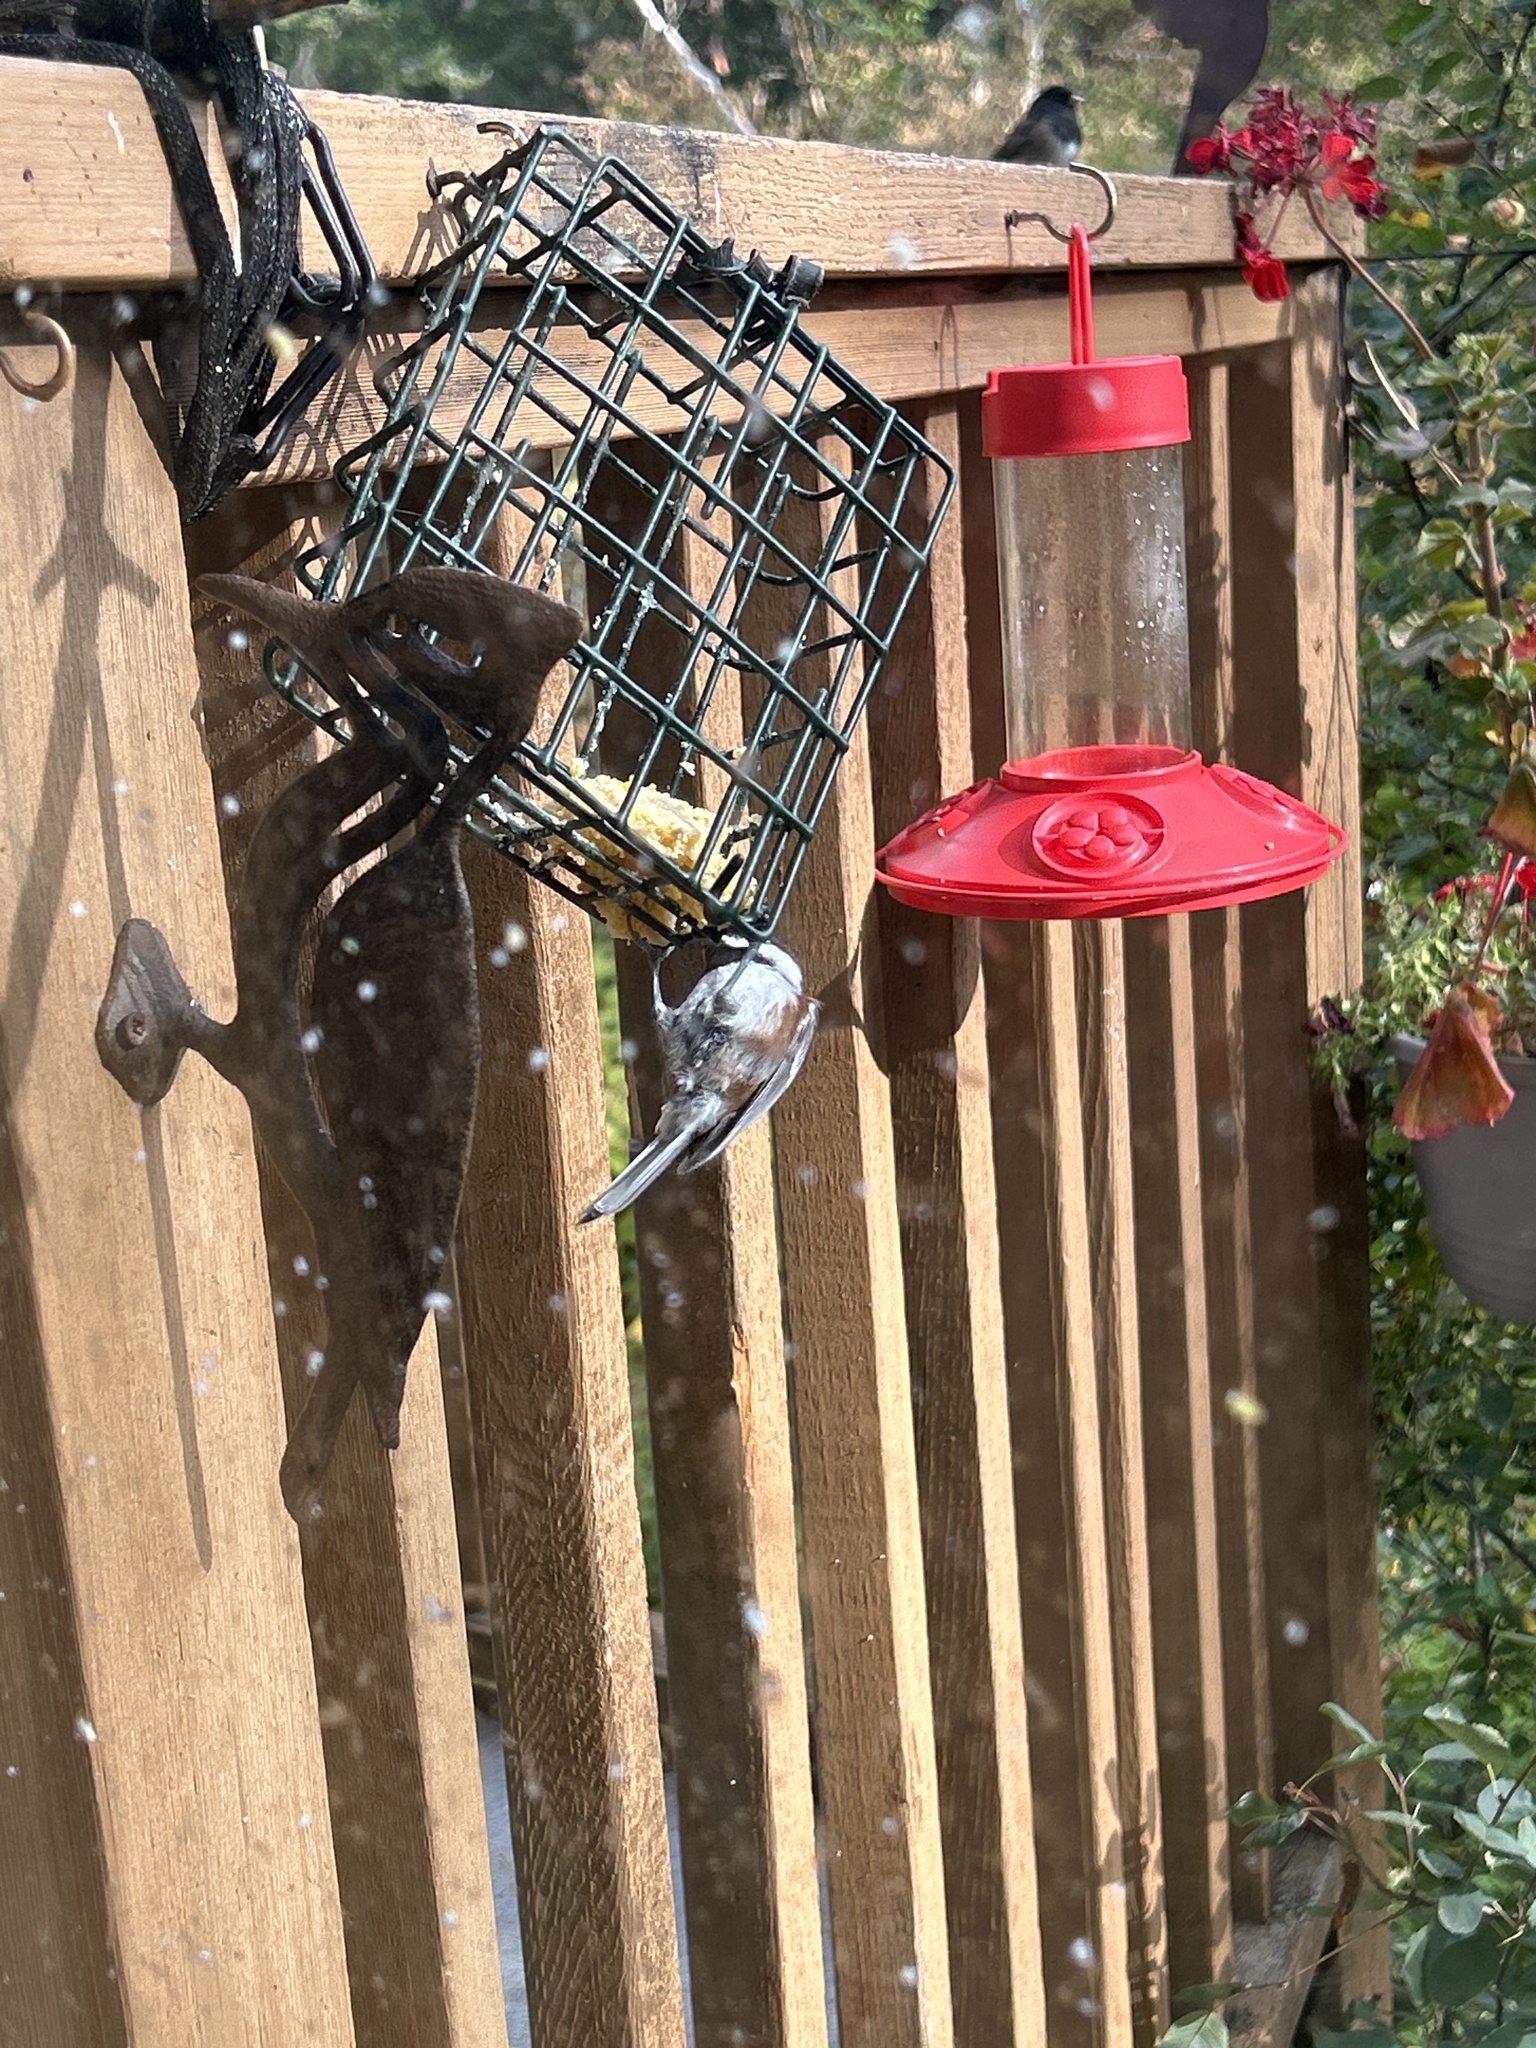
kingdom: Animalia
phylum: Chordata
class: Aves
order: Passeriformes
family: Paridae
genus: Poecile
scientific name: Poecile rufescens
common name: Chestnut-backed chickadee
